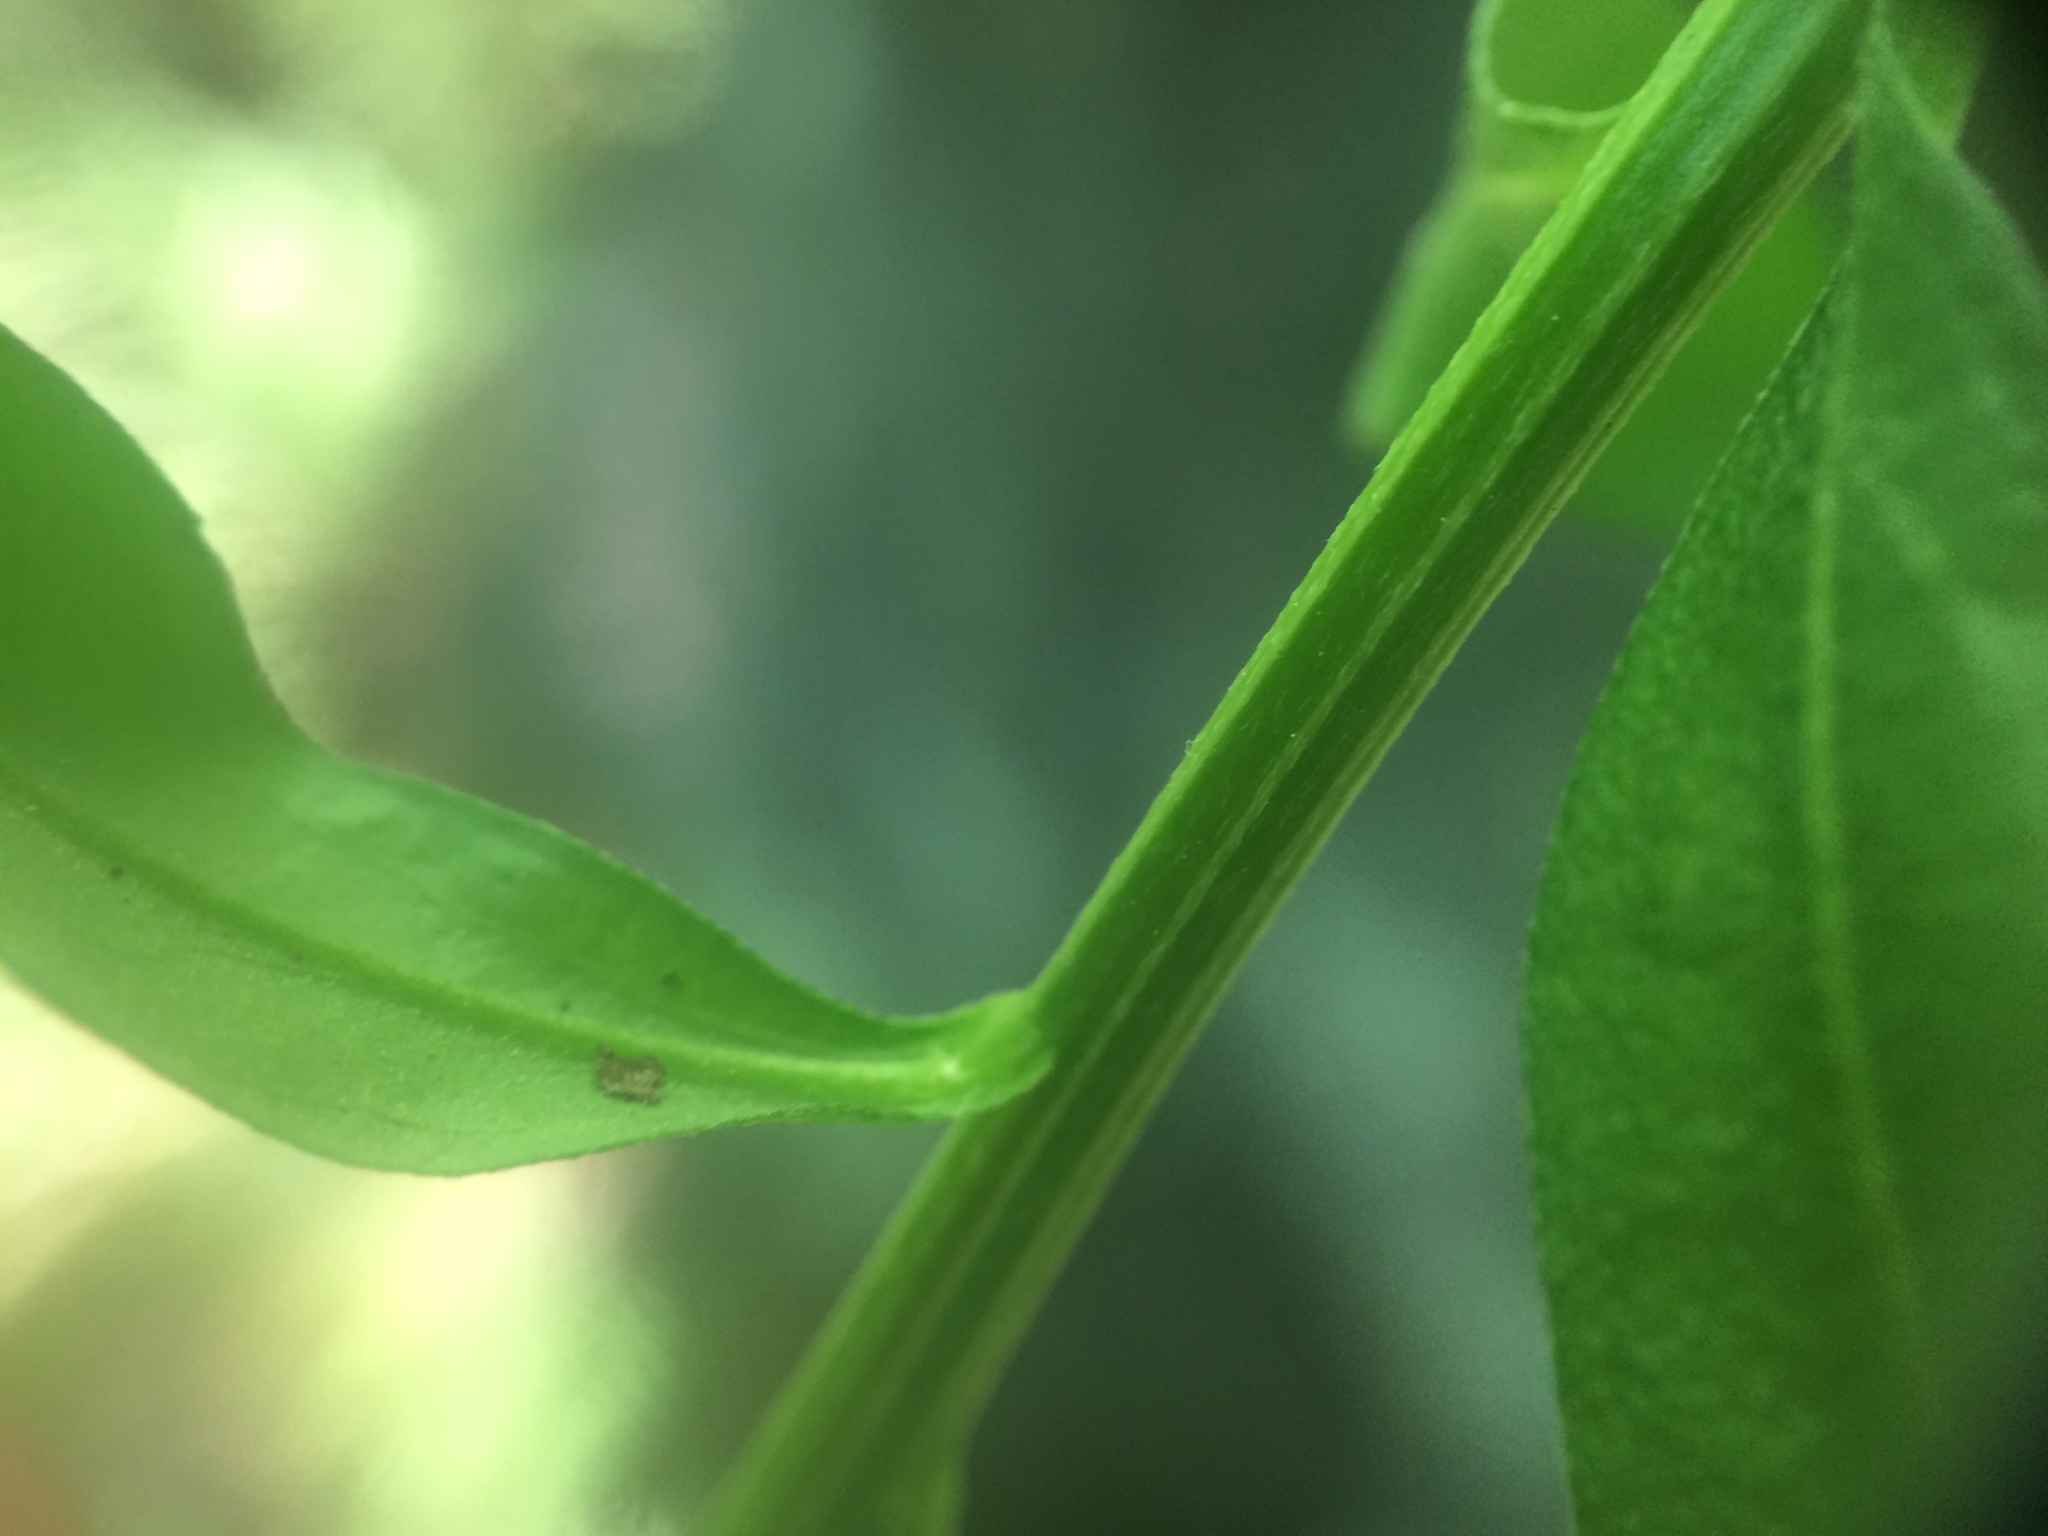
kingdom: Plantae
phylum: Tracheophyta
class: Magnoliopsida
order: Brassicales
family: Brassicaceae
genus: Erysimum
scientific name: Erysimum cheiranthoides
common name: Treacle mustard
